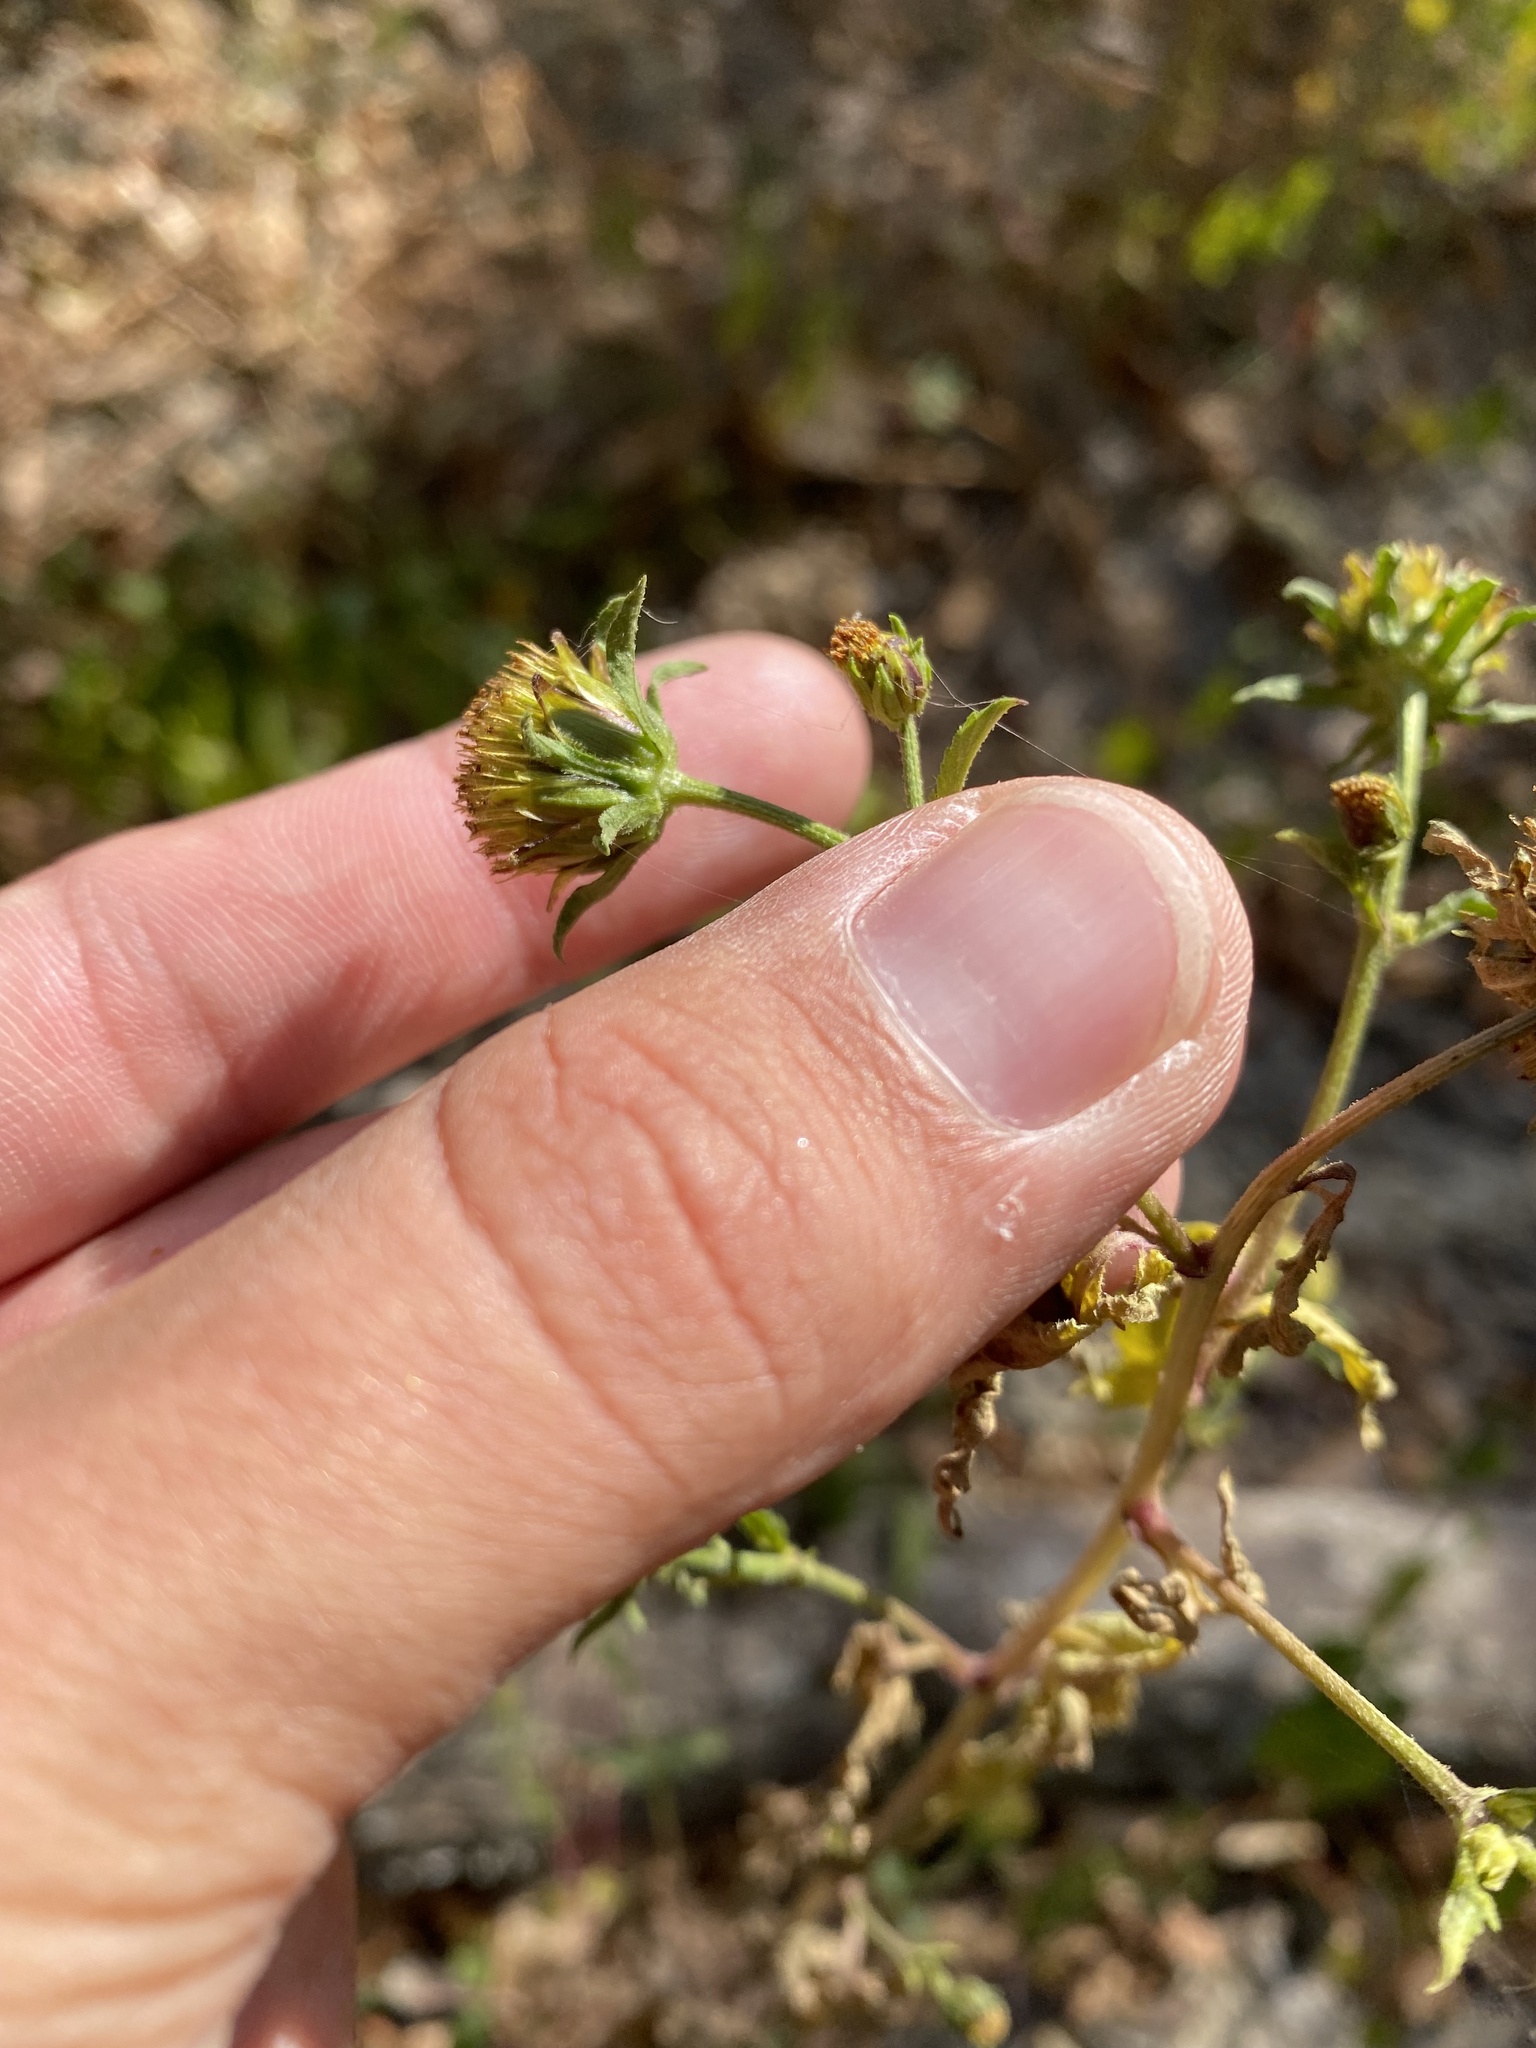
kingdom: Plantae
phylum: Tracheophyta
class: Magnoliopsida
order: Asterales
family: Asteraceae
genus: Bidens
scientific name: Bidens tripartita
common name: Trifid bur-marigold
